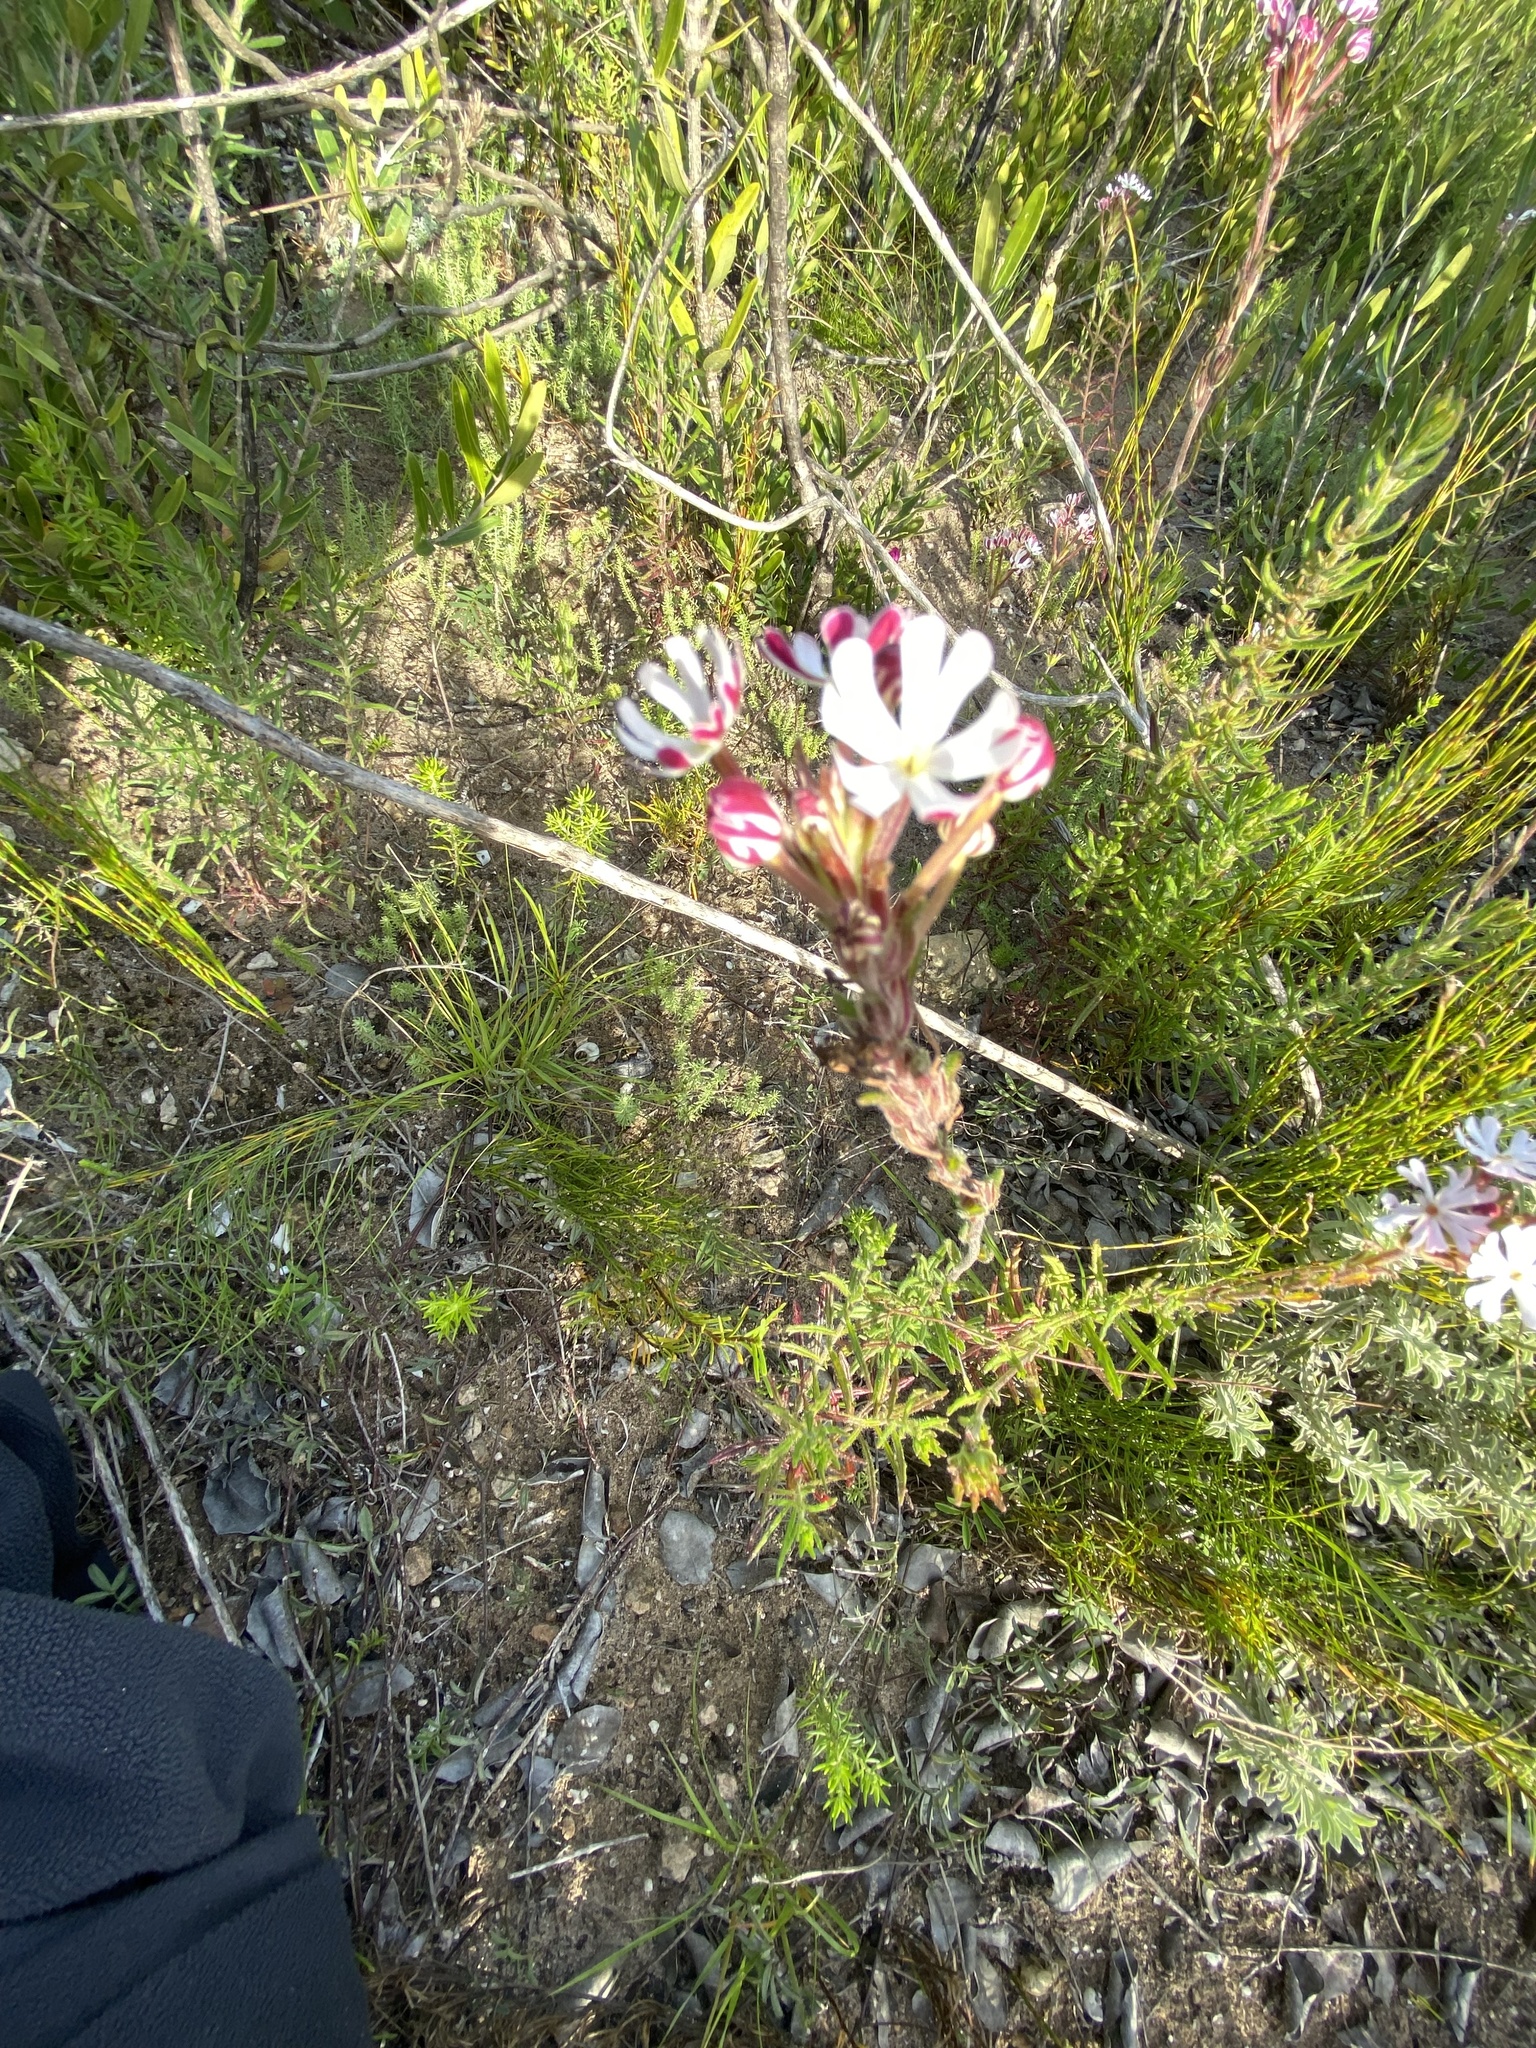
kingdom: Plantae
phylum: Tracheophyta
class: Magnoliopsida
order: Lamiales
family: Scrophulariaceae
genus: Zaluzianskya
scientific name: Zaluzianskya capensis
